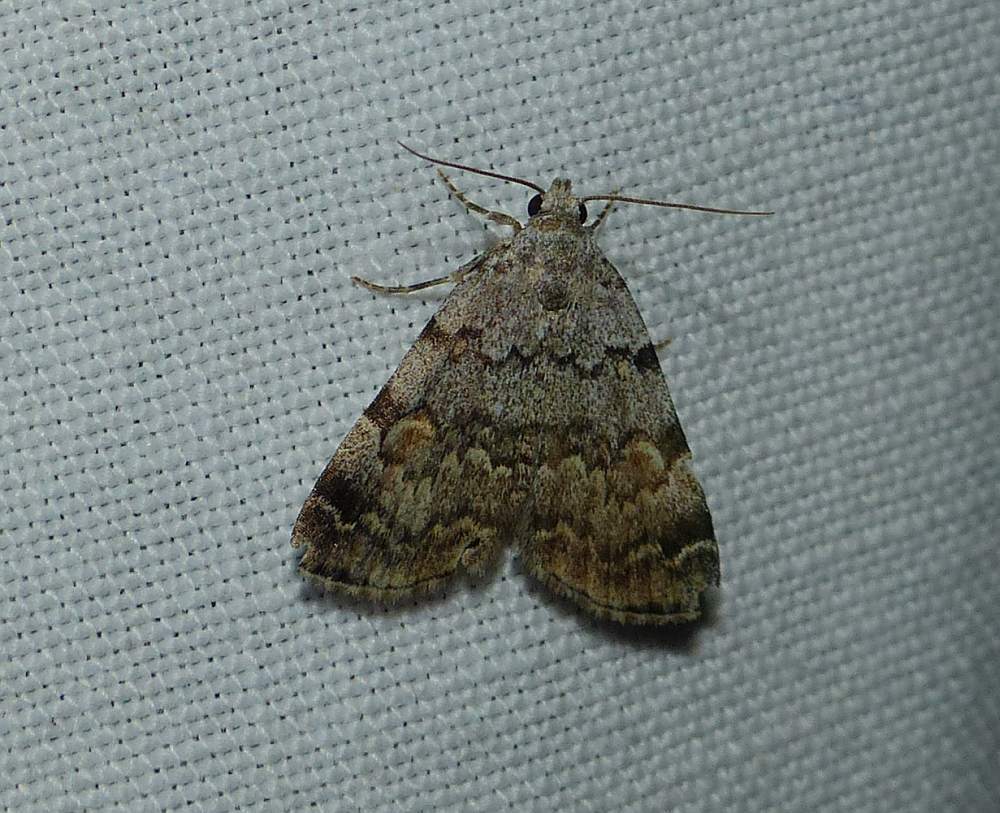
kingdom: Animalia
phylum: Arthropoda
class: Insecta
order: Lepidoptera
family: Erebidae
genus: Idia
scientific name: Idia americalis
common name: American idia moth
